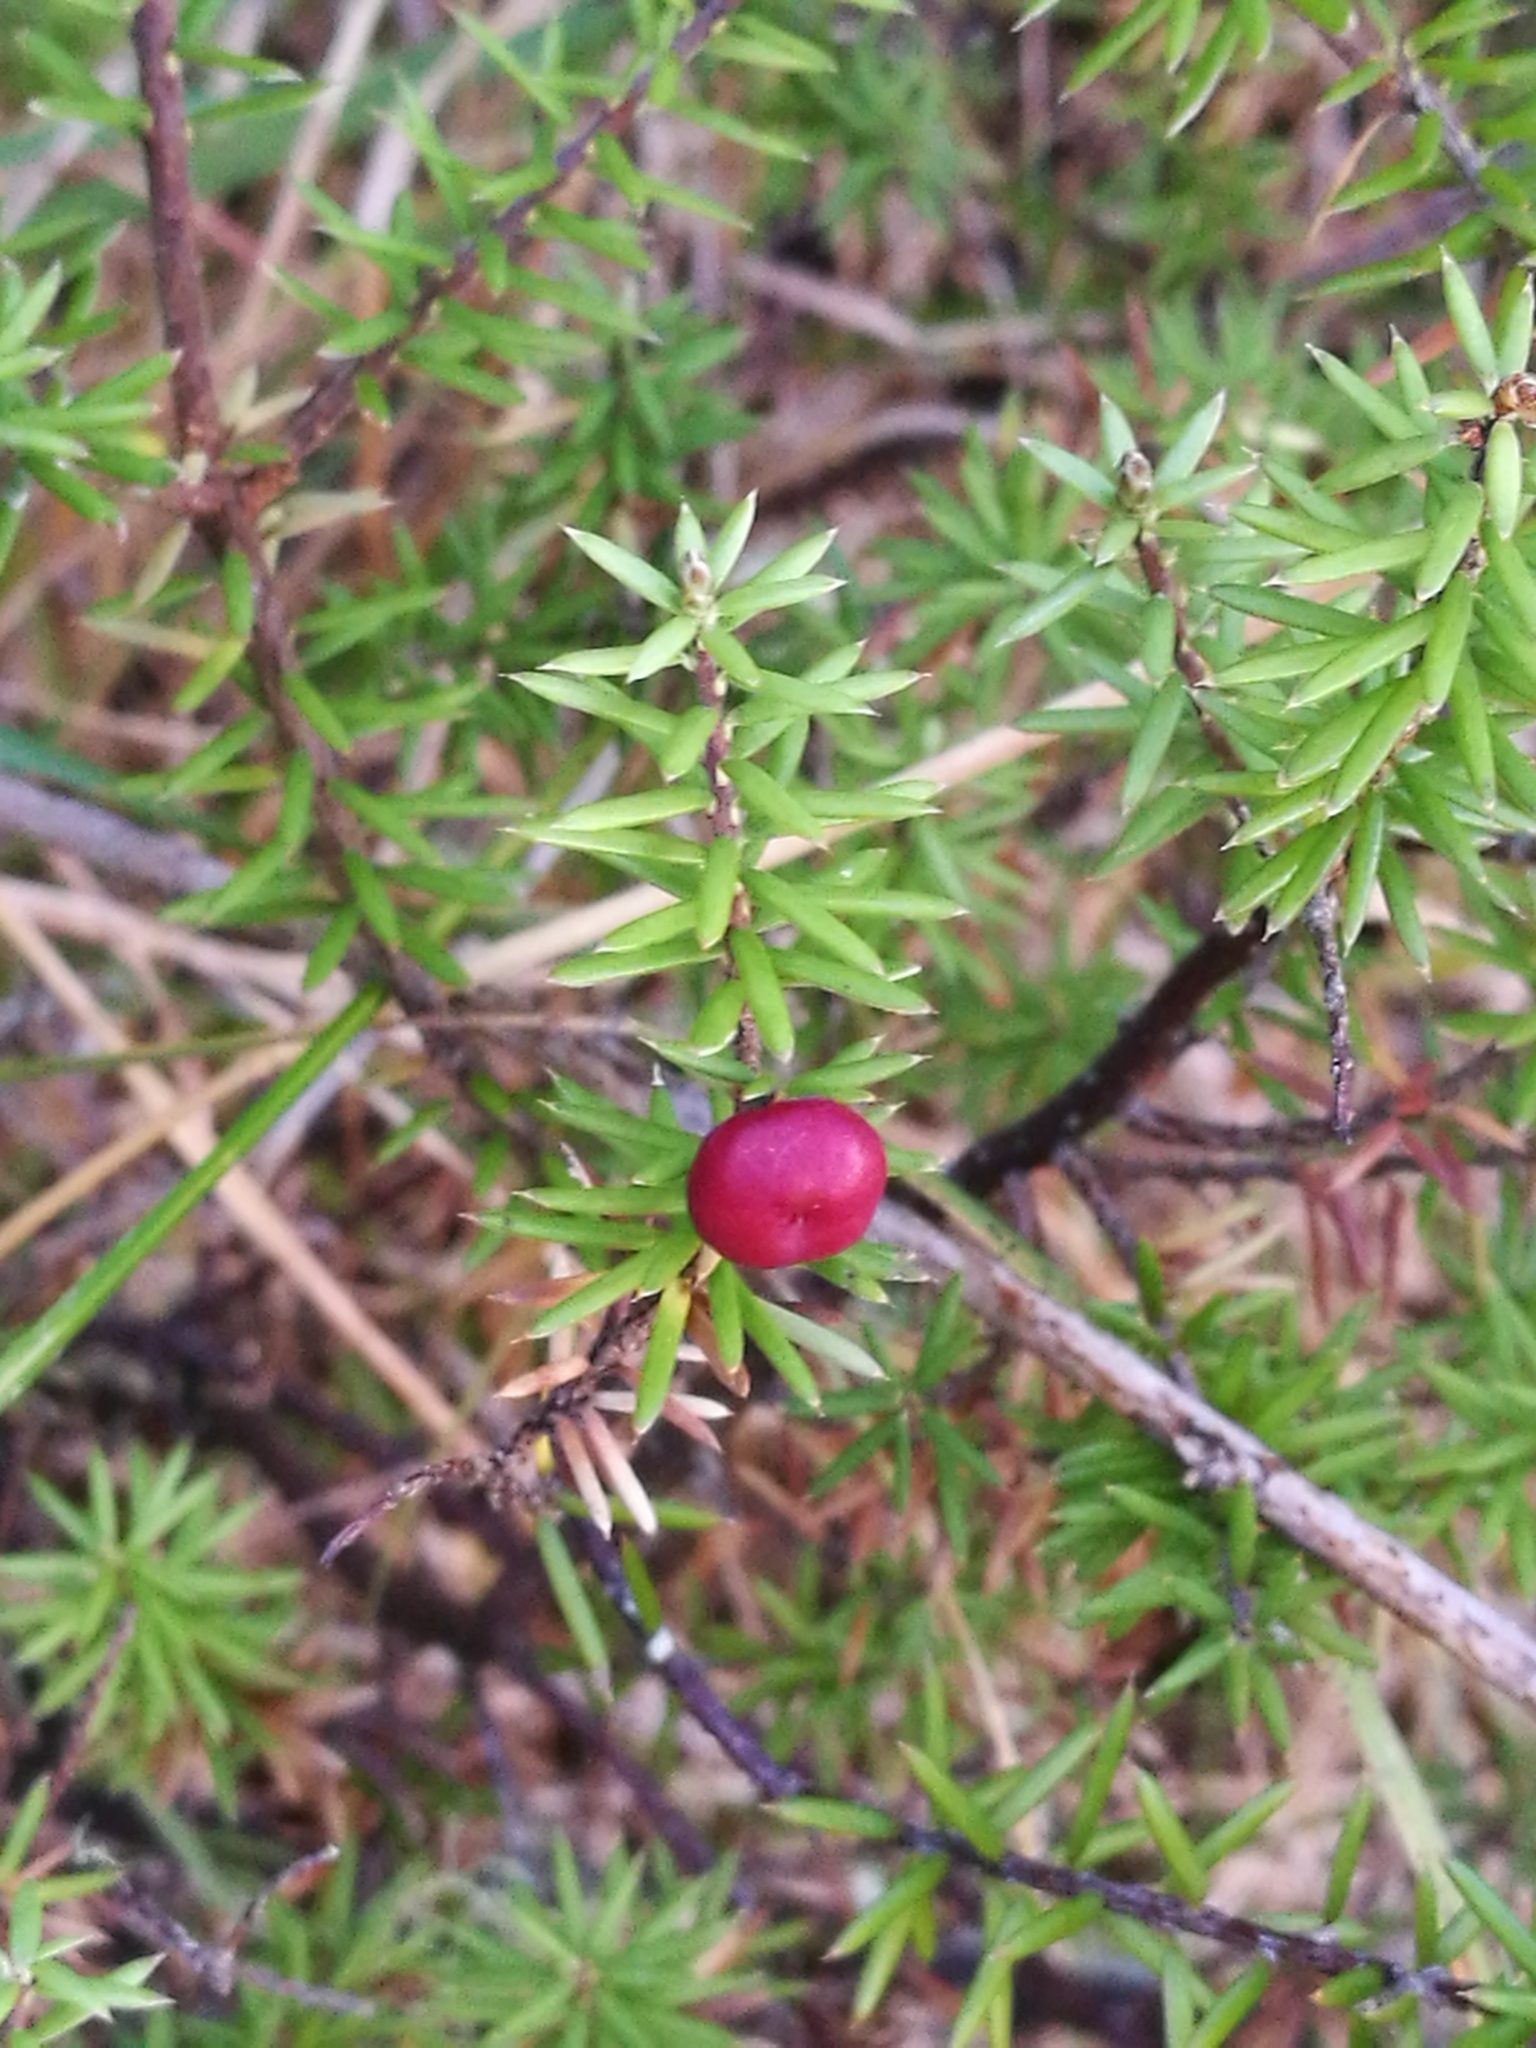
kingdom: Plantae
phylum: Tracheophyta
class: Magnoliopsida
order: Ericales
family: Ericaceae
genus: Leptecophylla
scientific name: Leptecophylla juniperina
